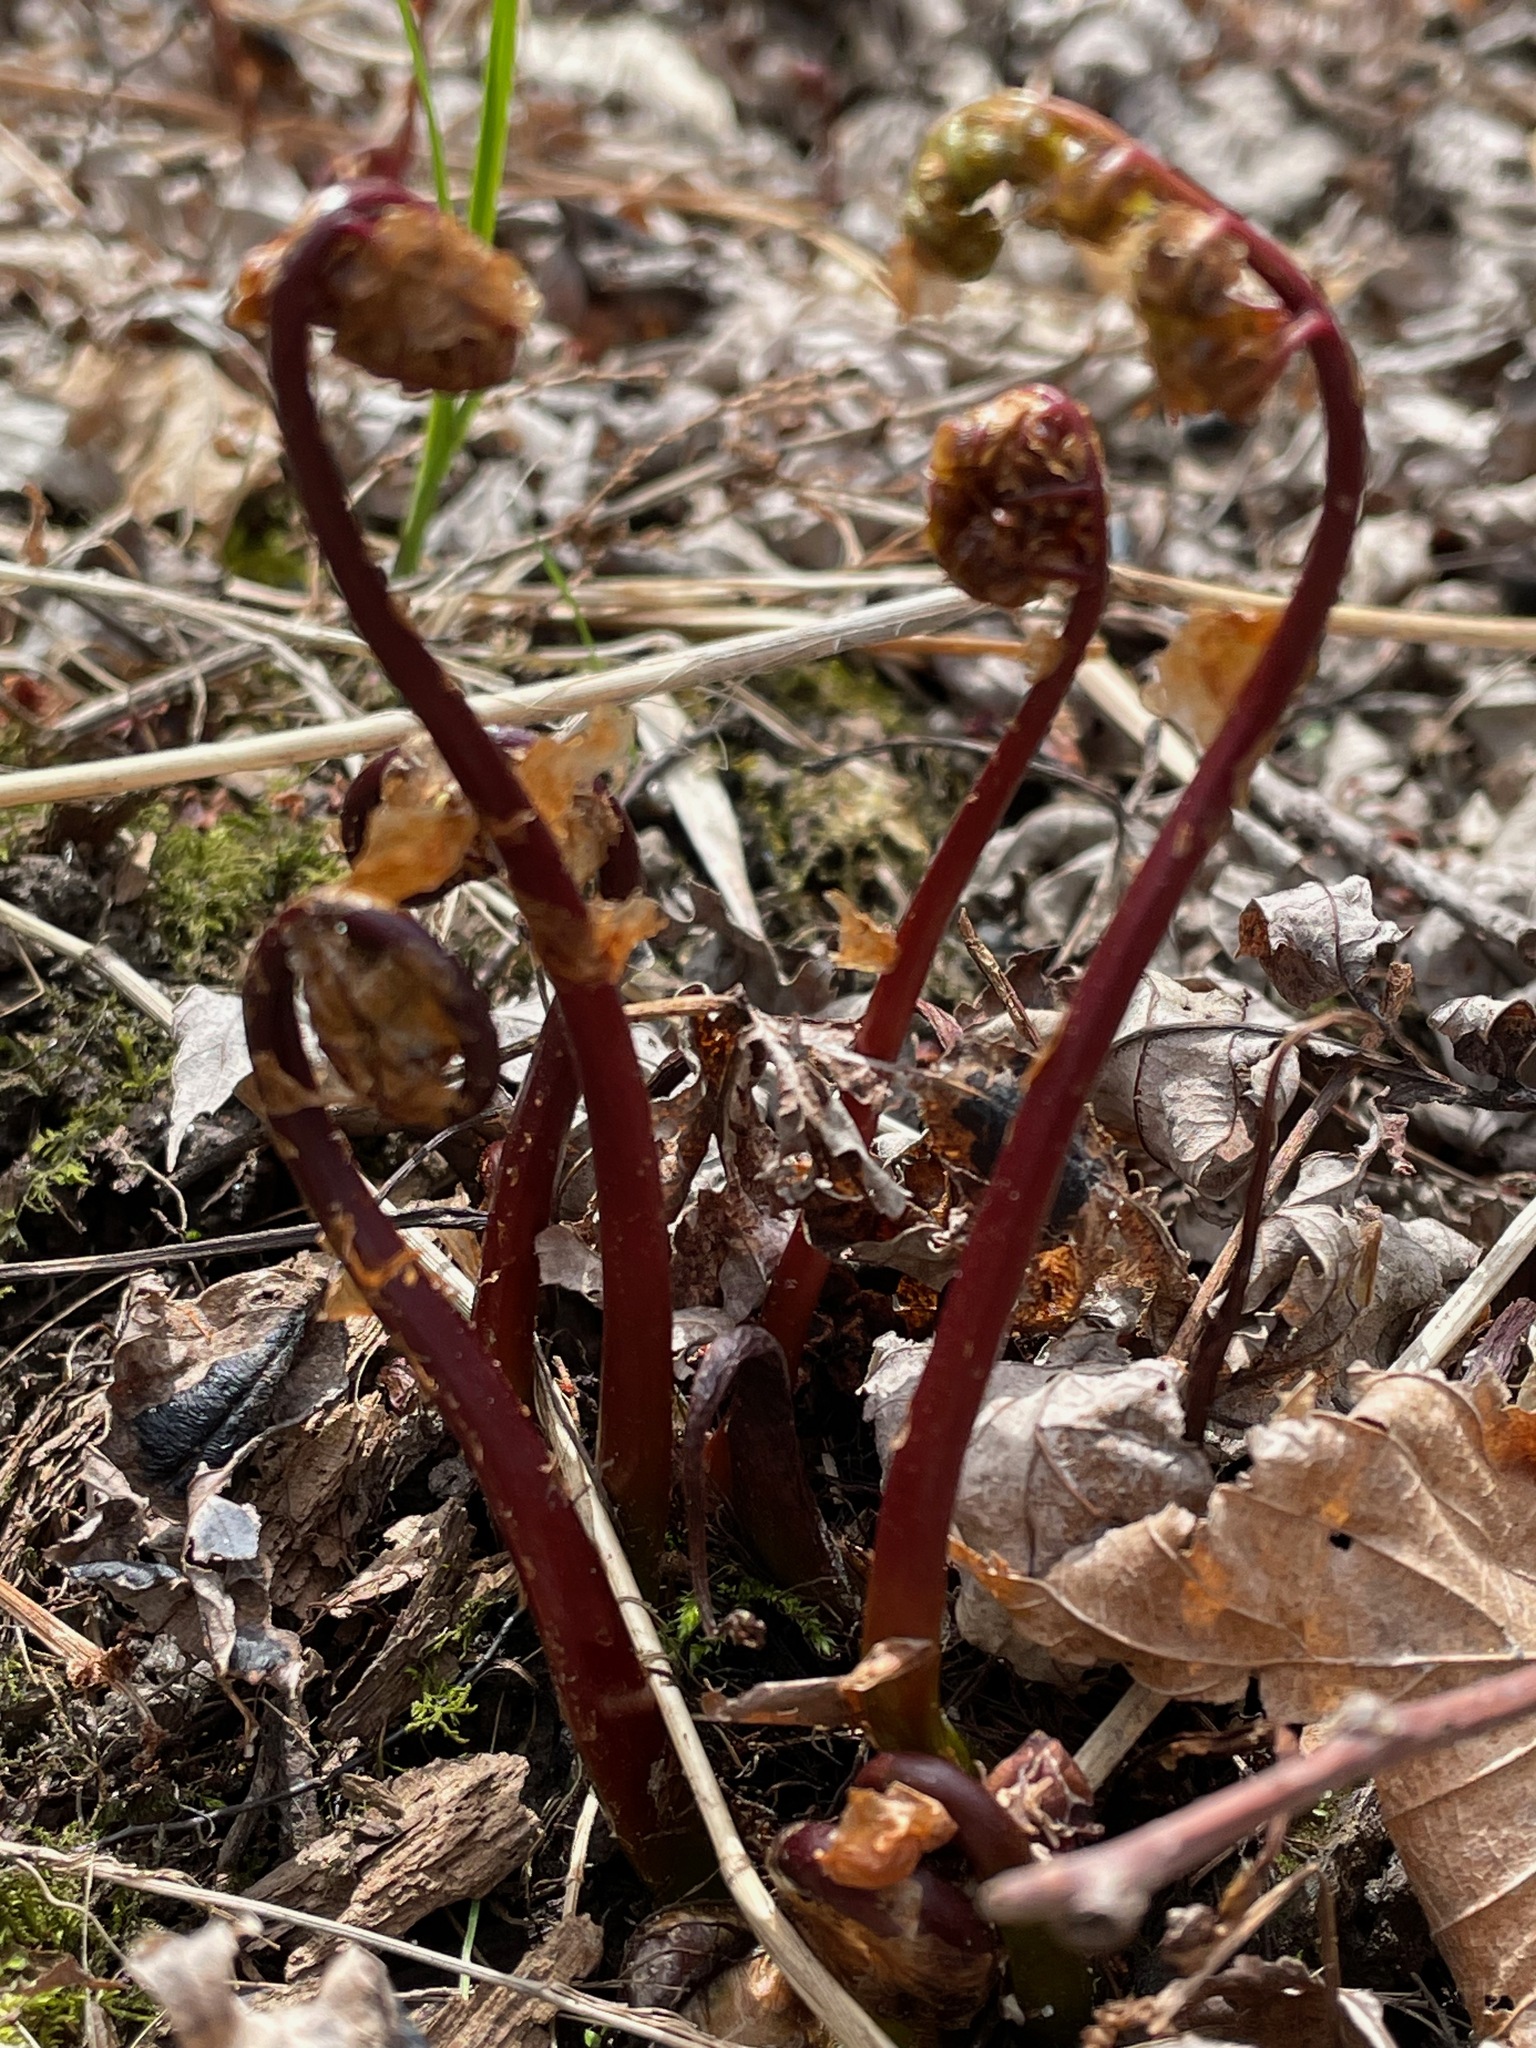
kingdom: Plantae
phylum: Tracheophyta
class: Polypodiopsida
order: Polypodiales
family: Onocleaceae
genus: Onoclea
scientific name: Onoclea sensibilis
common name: Sensitive fern
